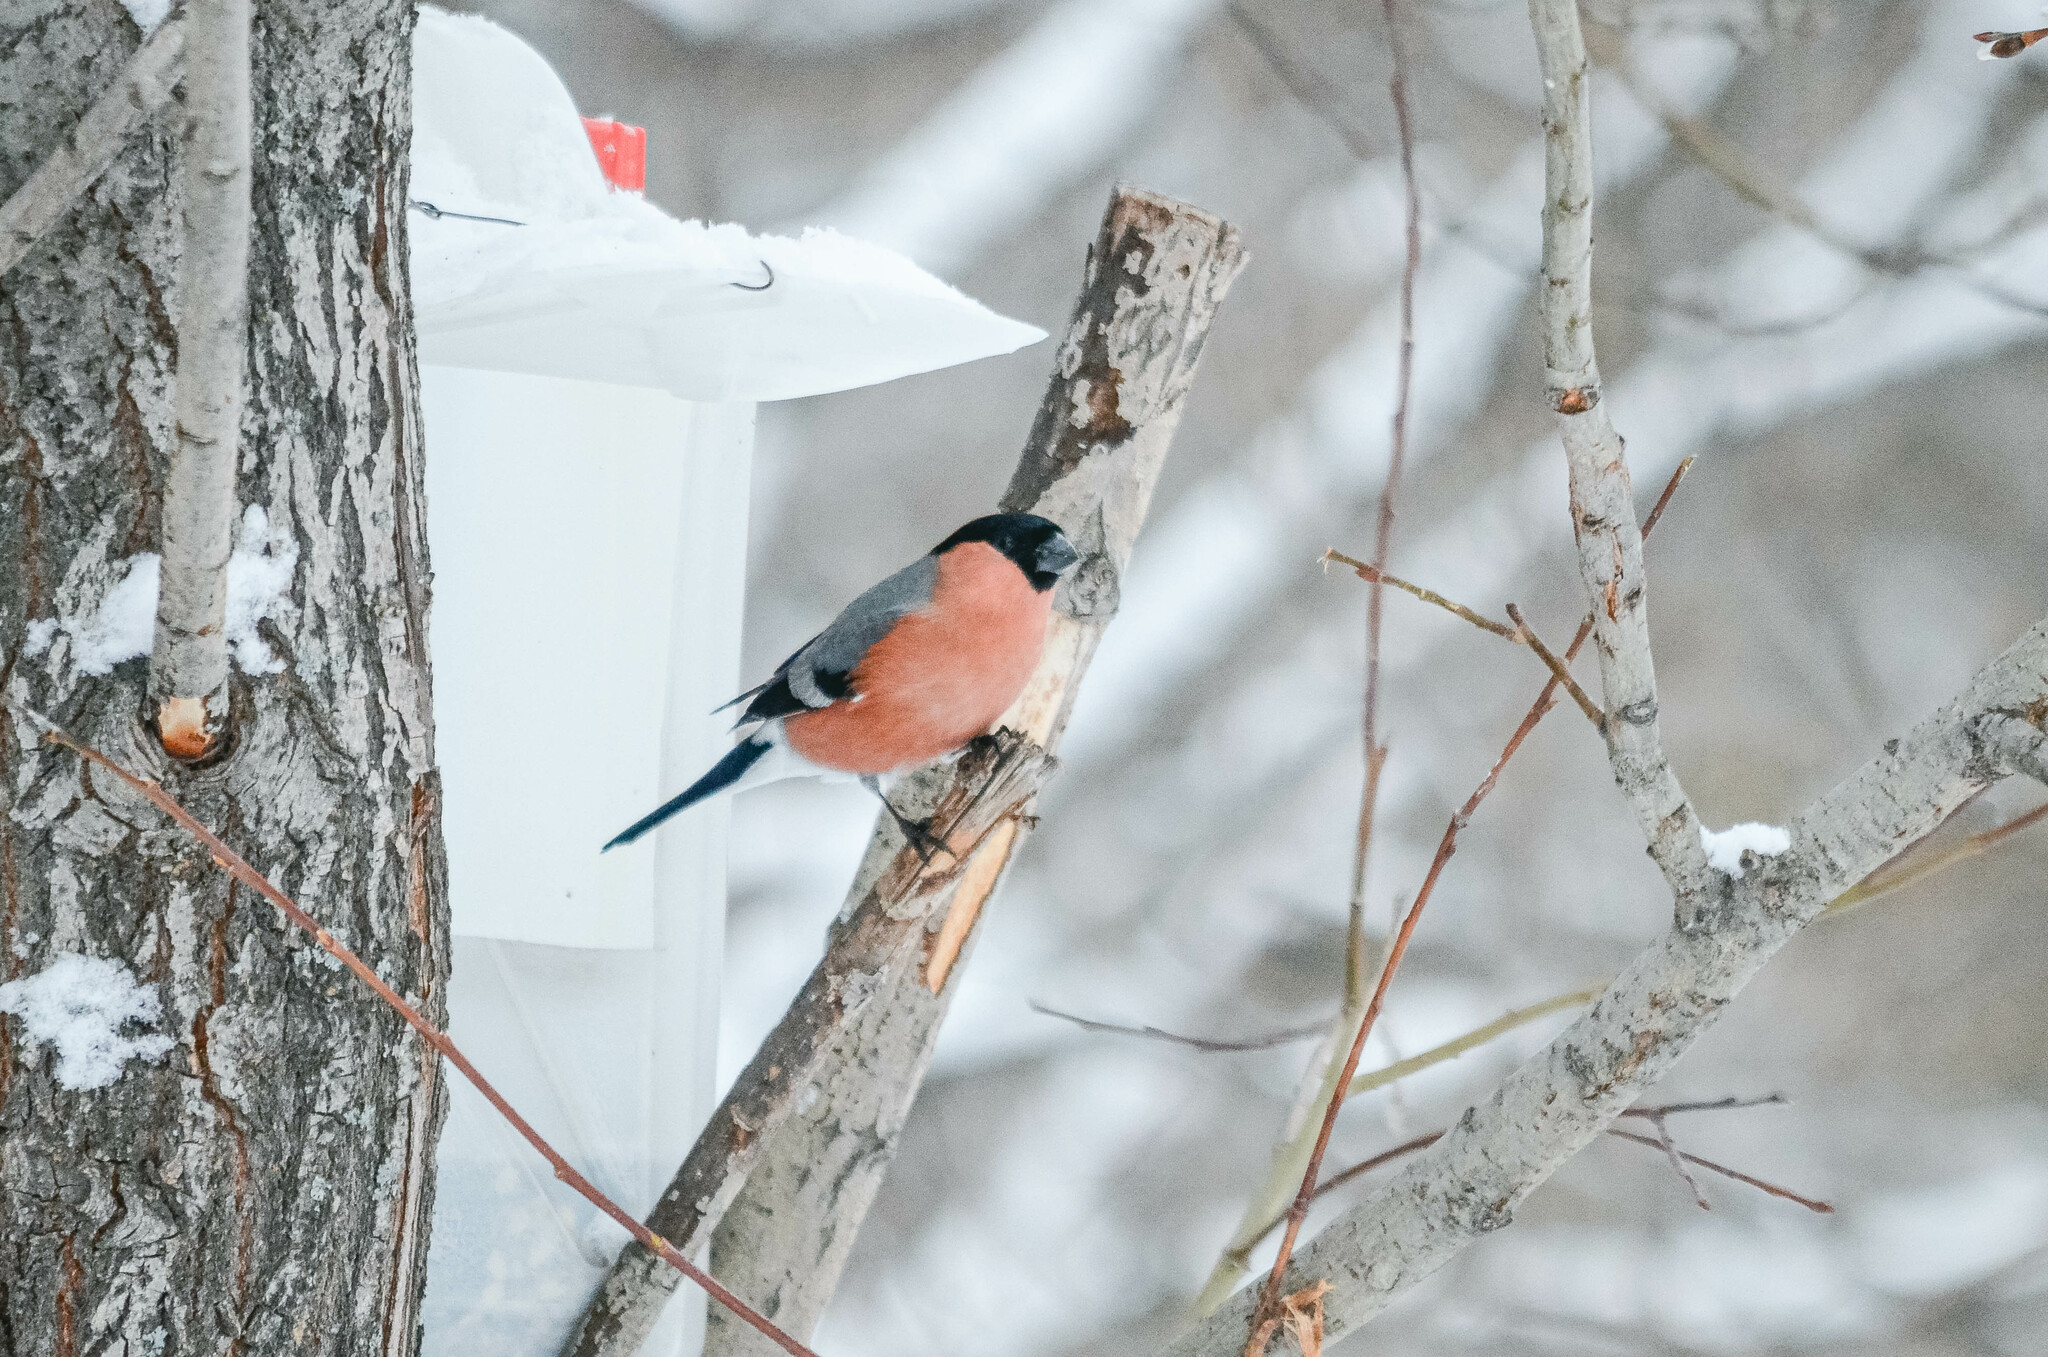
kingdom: Animalia
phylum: Chordata
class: Aves
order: Passeriformes
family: Fringillidae
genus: Pyrrhula
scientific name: Pyrrhula pyrrhula
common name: Eurasian bullfinch
